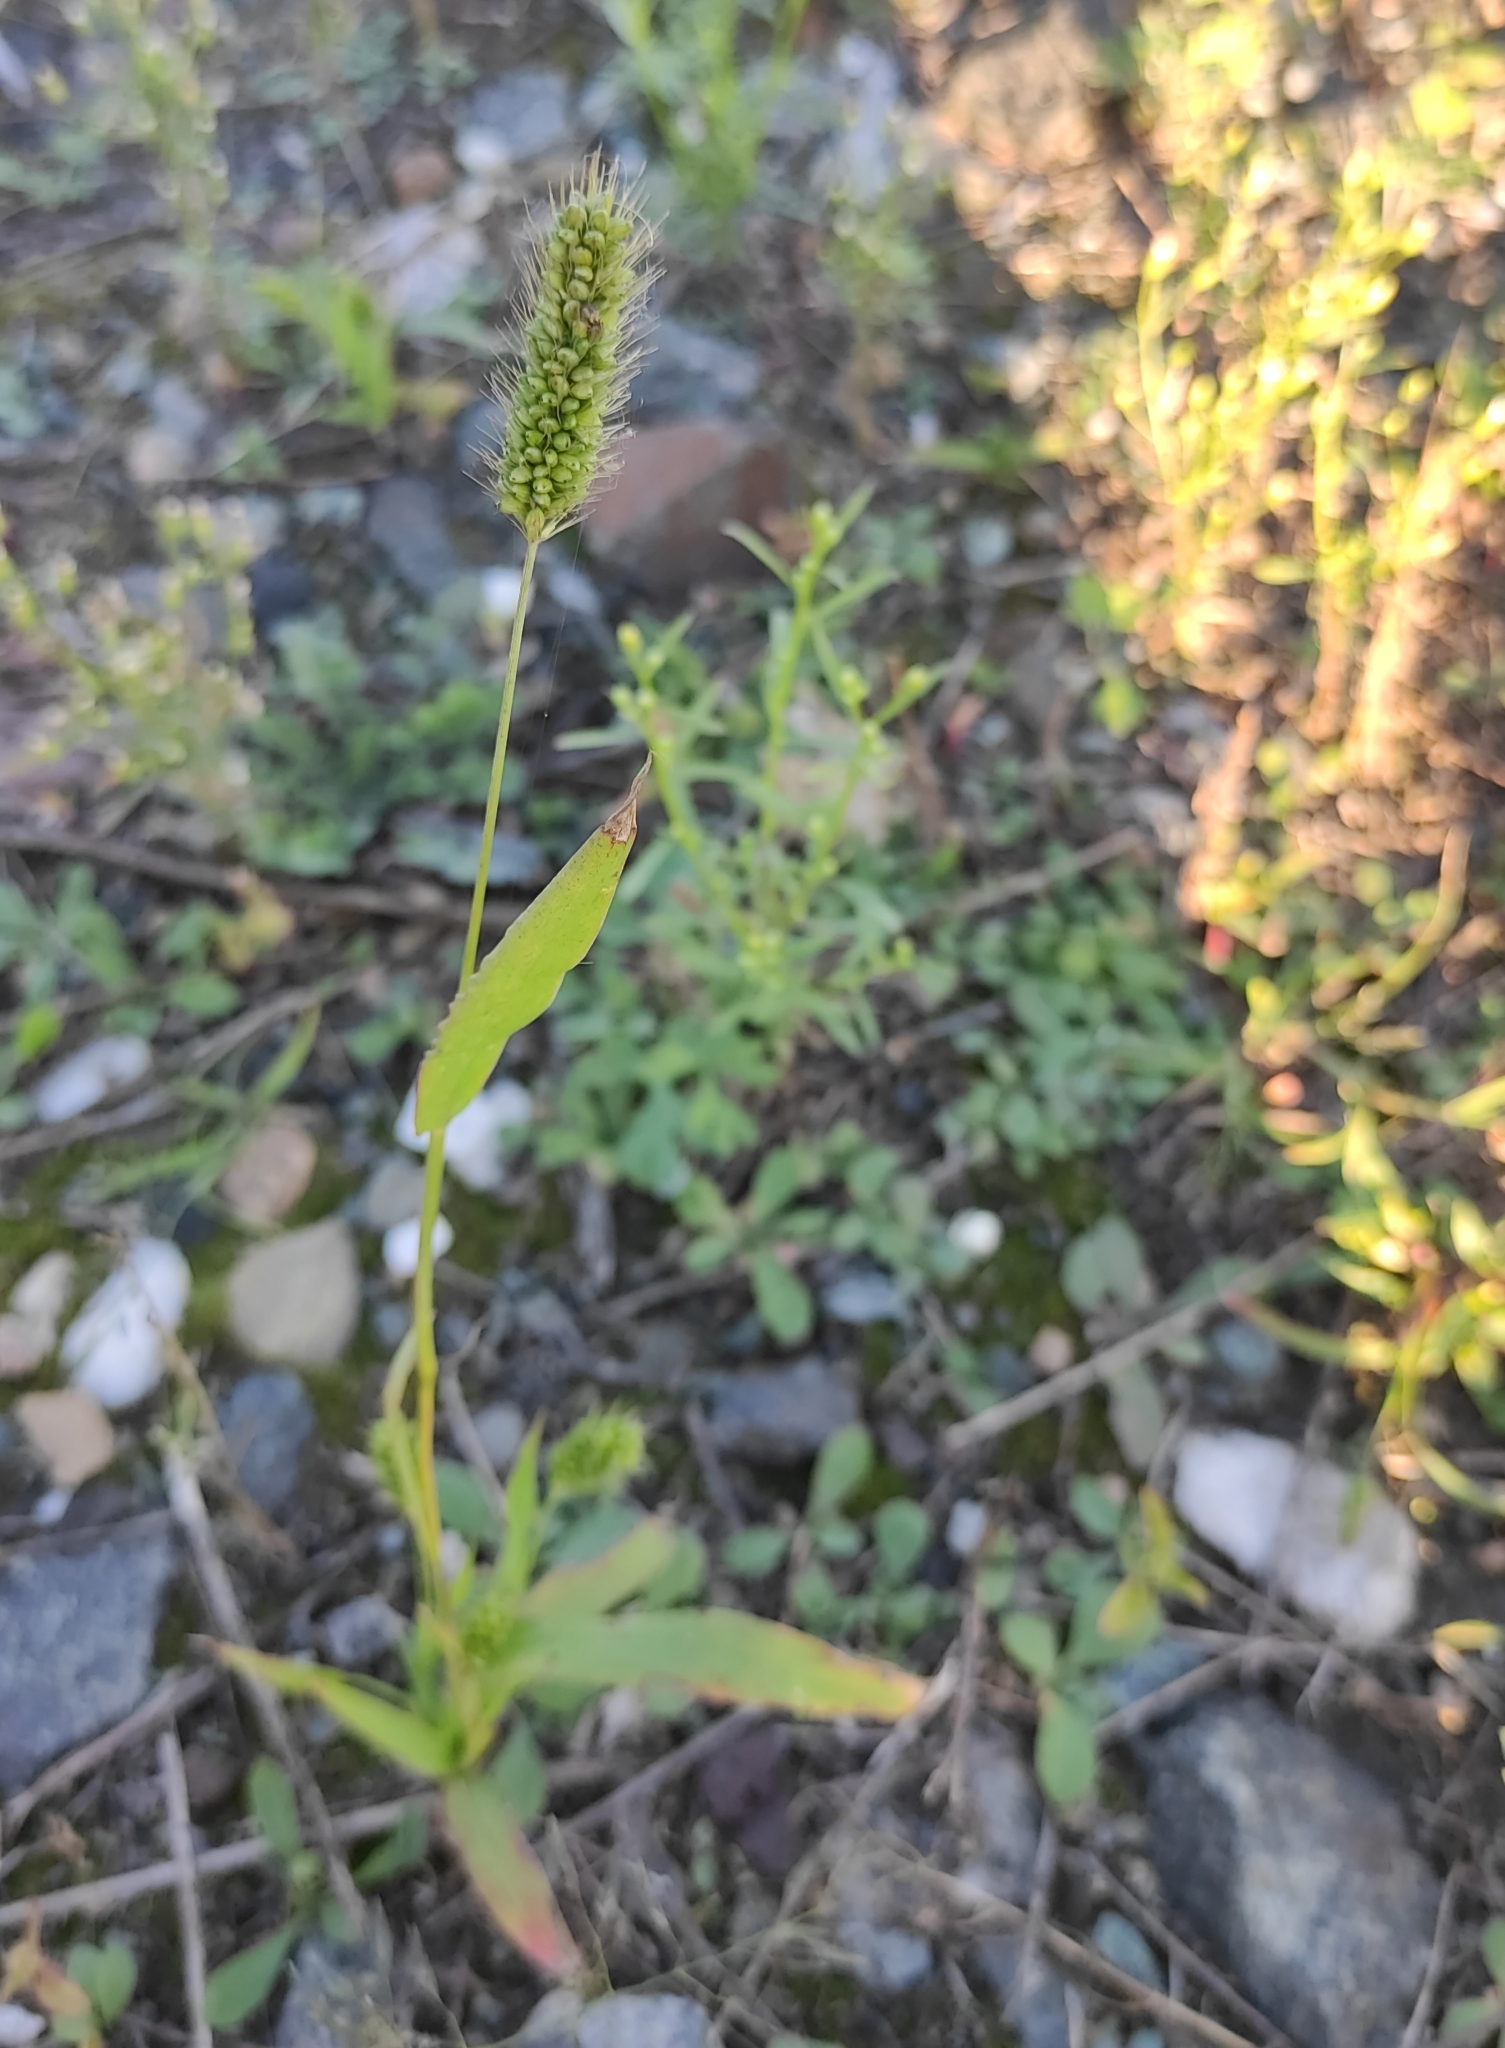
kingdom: Plantae
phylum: Tracheophyta
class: Liliopsida
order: Poales
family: Poaceae
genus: Setaria
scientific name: Setaria viridis
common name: Green bristlegrass
